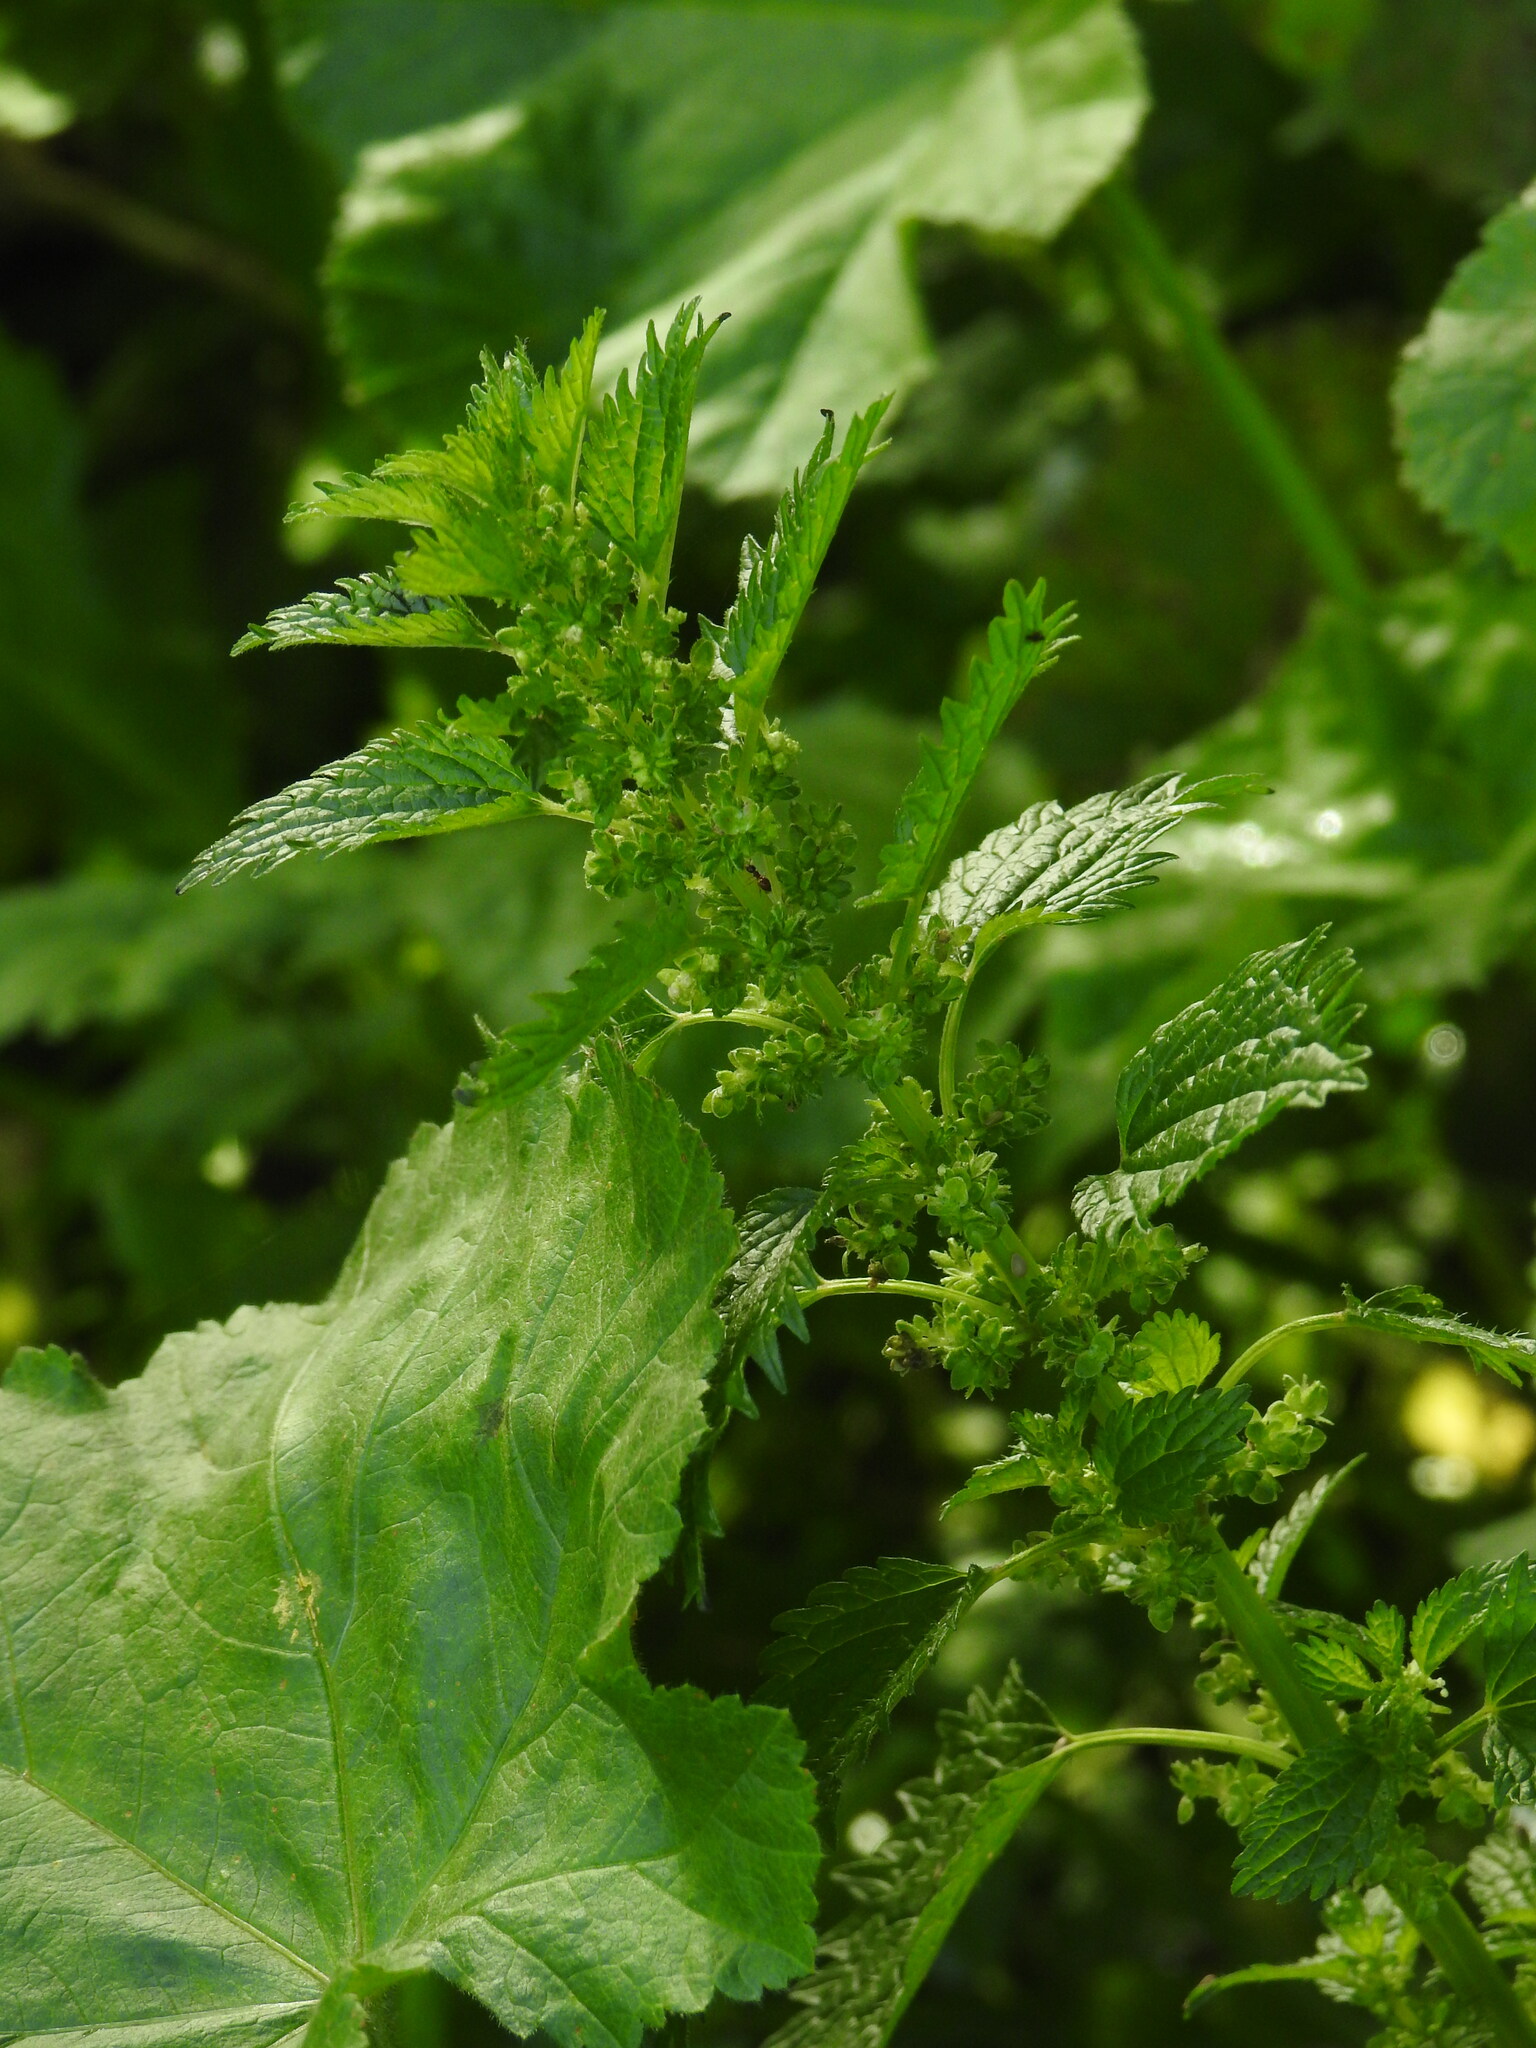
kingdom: Plantae
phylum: Tracheophyta
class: Magnoliopsida
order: Rosales
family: Urticaceae
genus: Urtica
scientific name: Urtica urens
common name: Dwarf nettle
